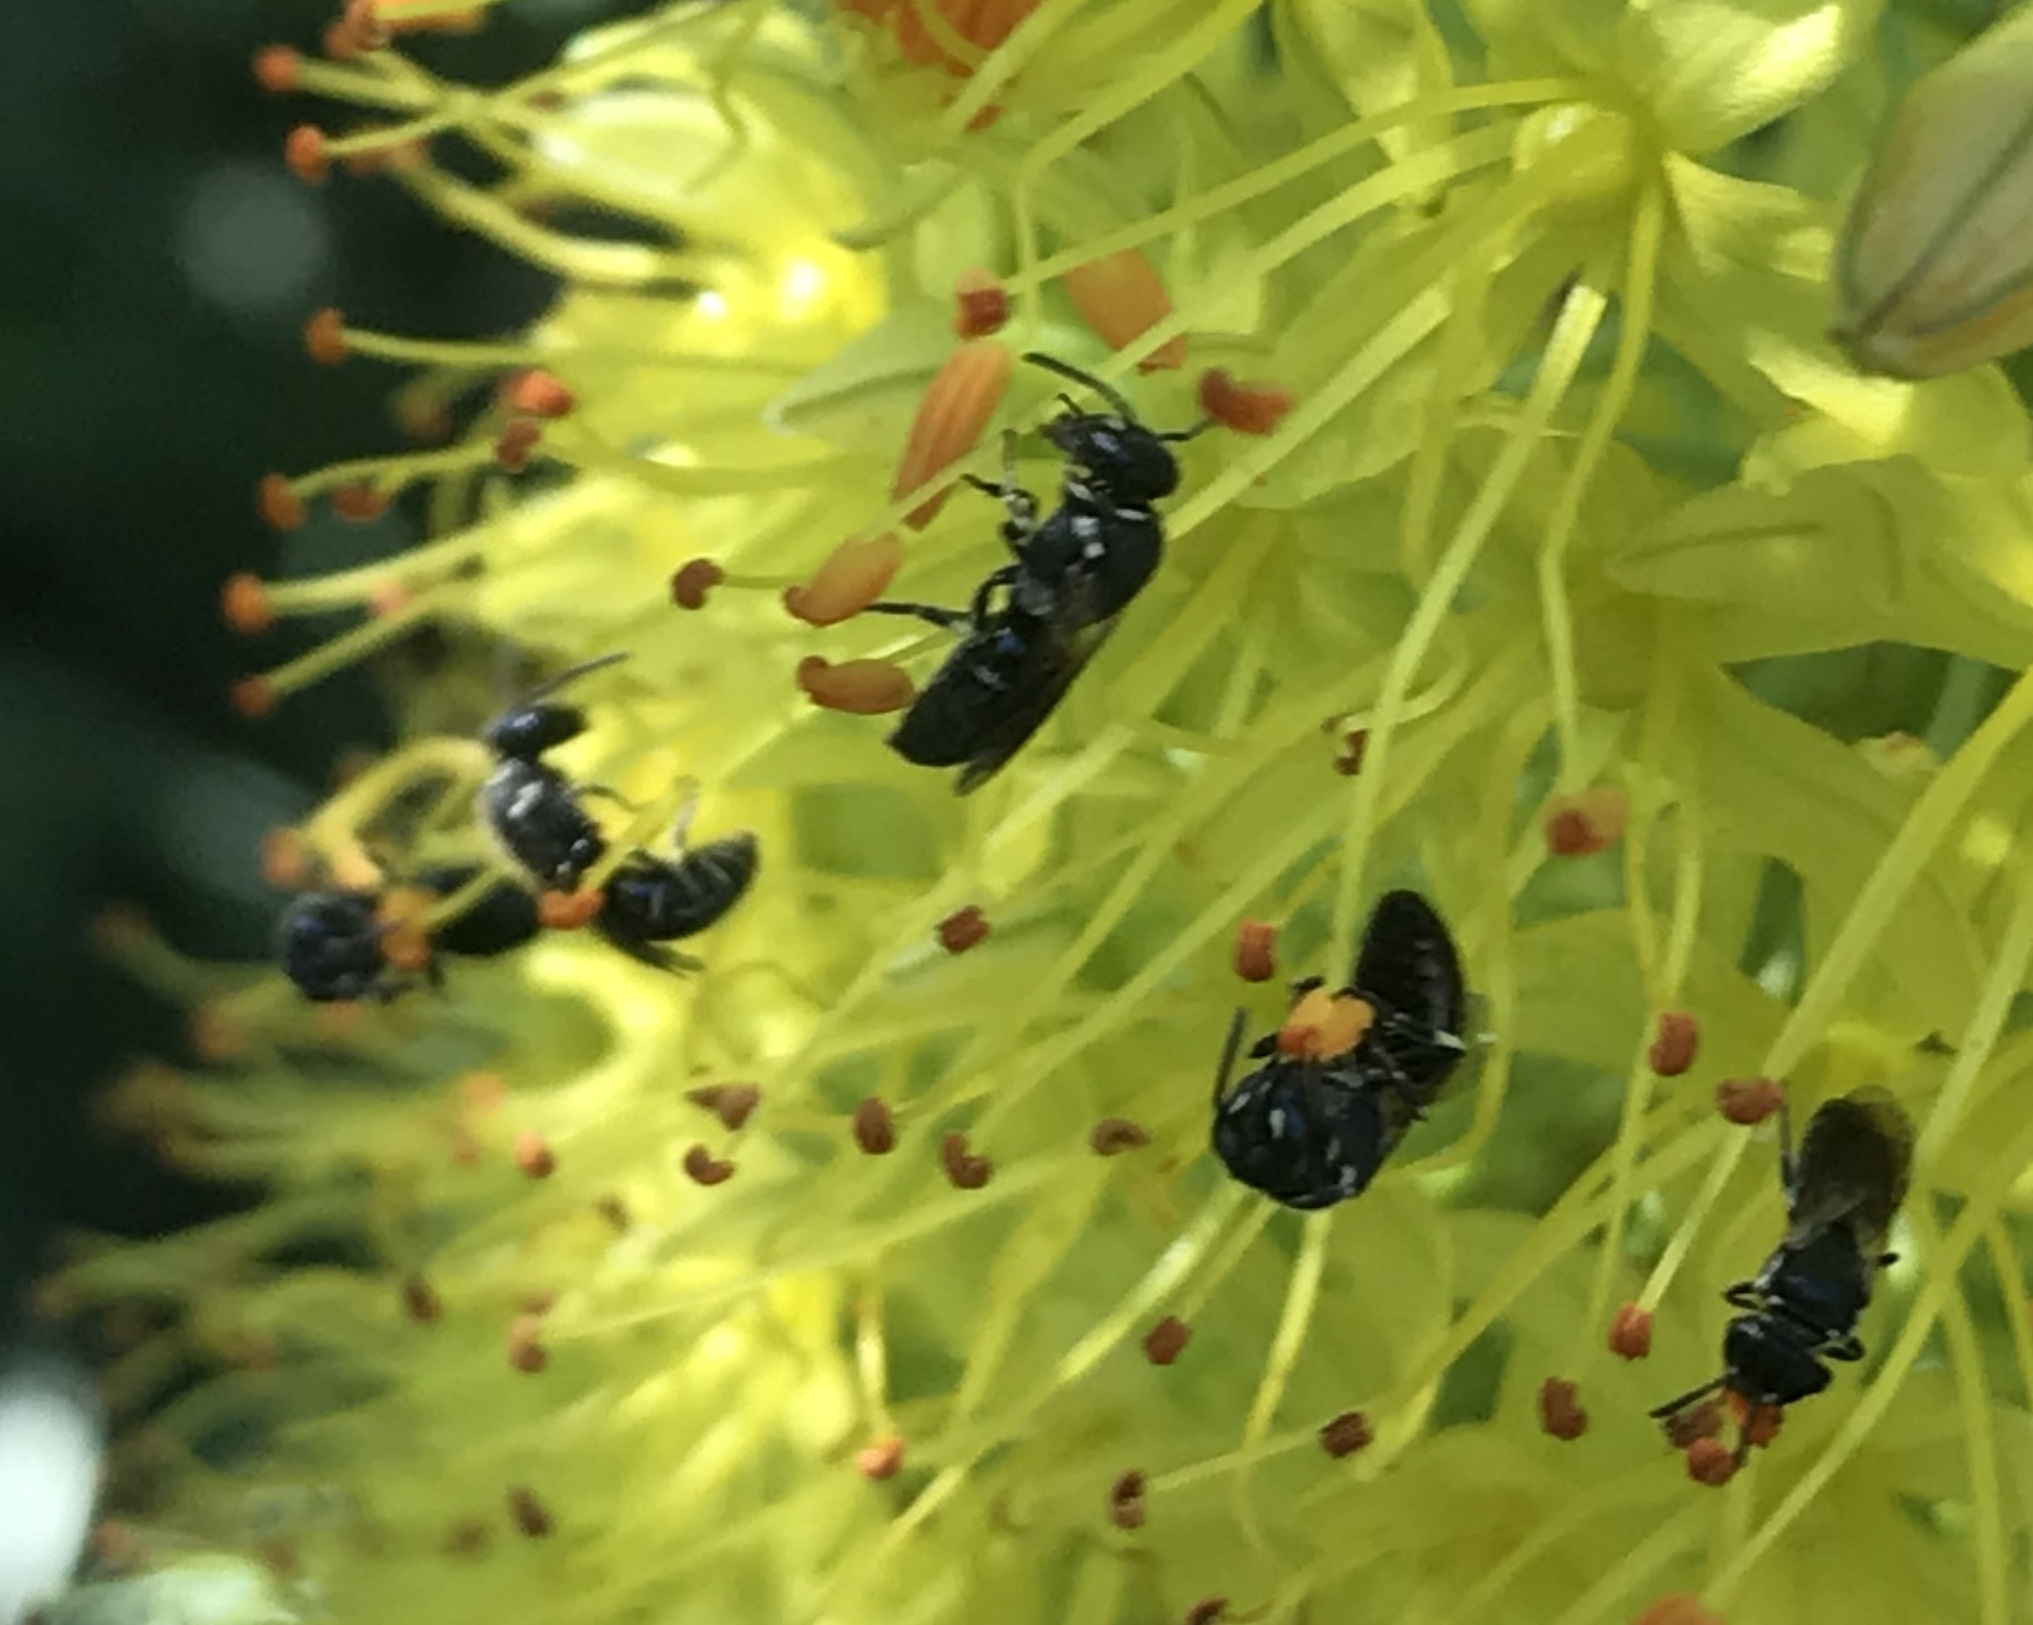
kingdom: Animalia
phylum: Arthropoda
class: Insecta
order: Hymenoptera
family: Colletidae
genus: Hylaeus
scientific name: Hylaeus
